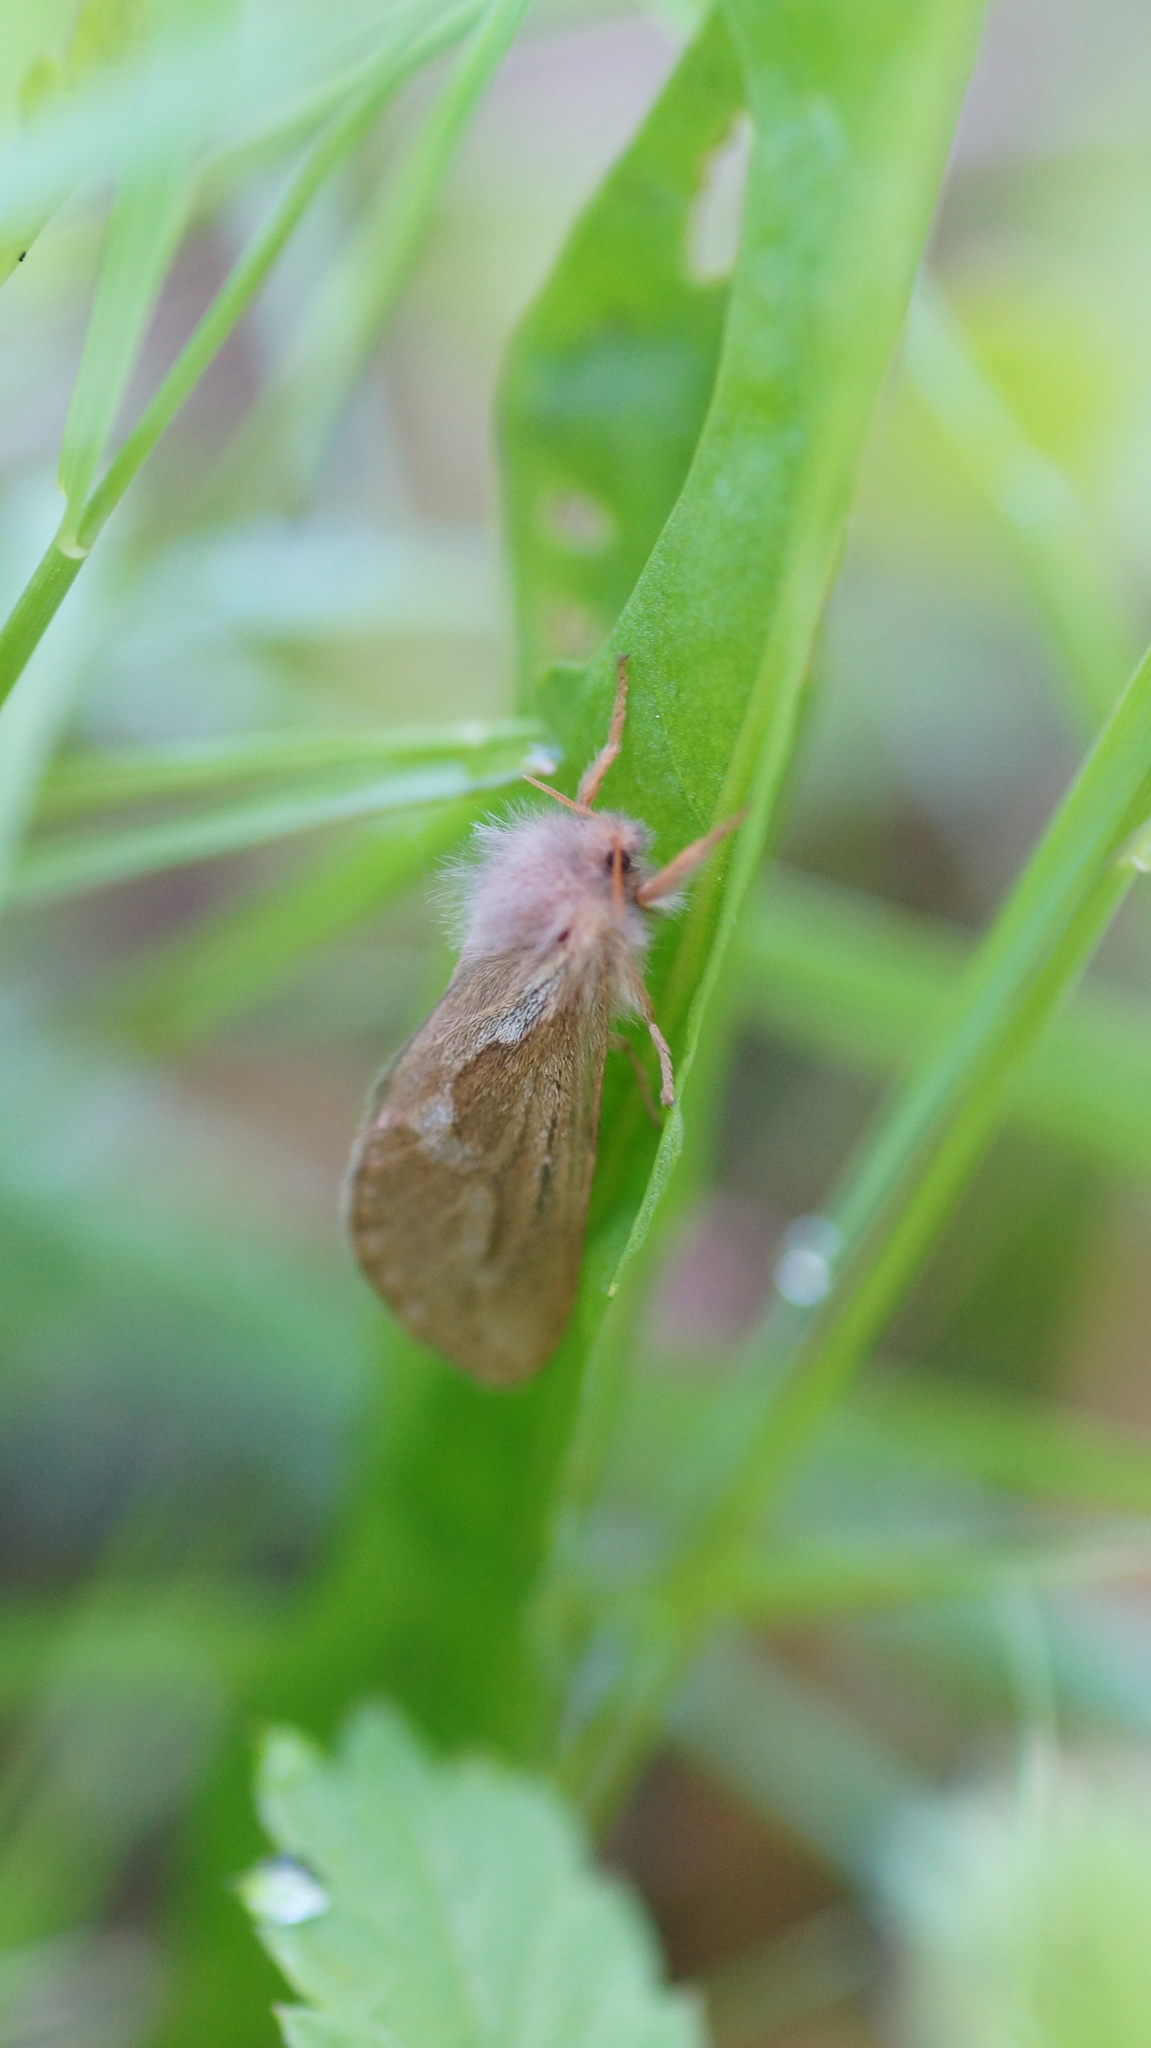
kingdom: Animalia
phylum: Arthropoda
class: Insecta
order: Lepidoptera
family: Hepialidae
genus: Korscheltellus
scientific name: Korscheltellus lupulina
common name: Common swift
